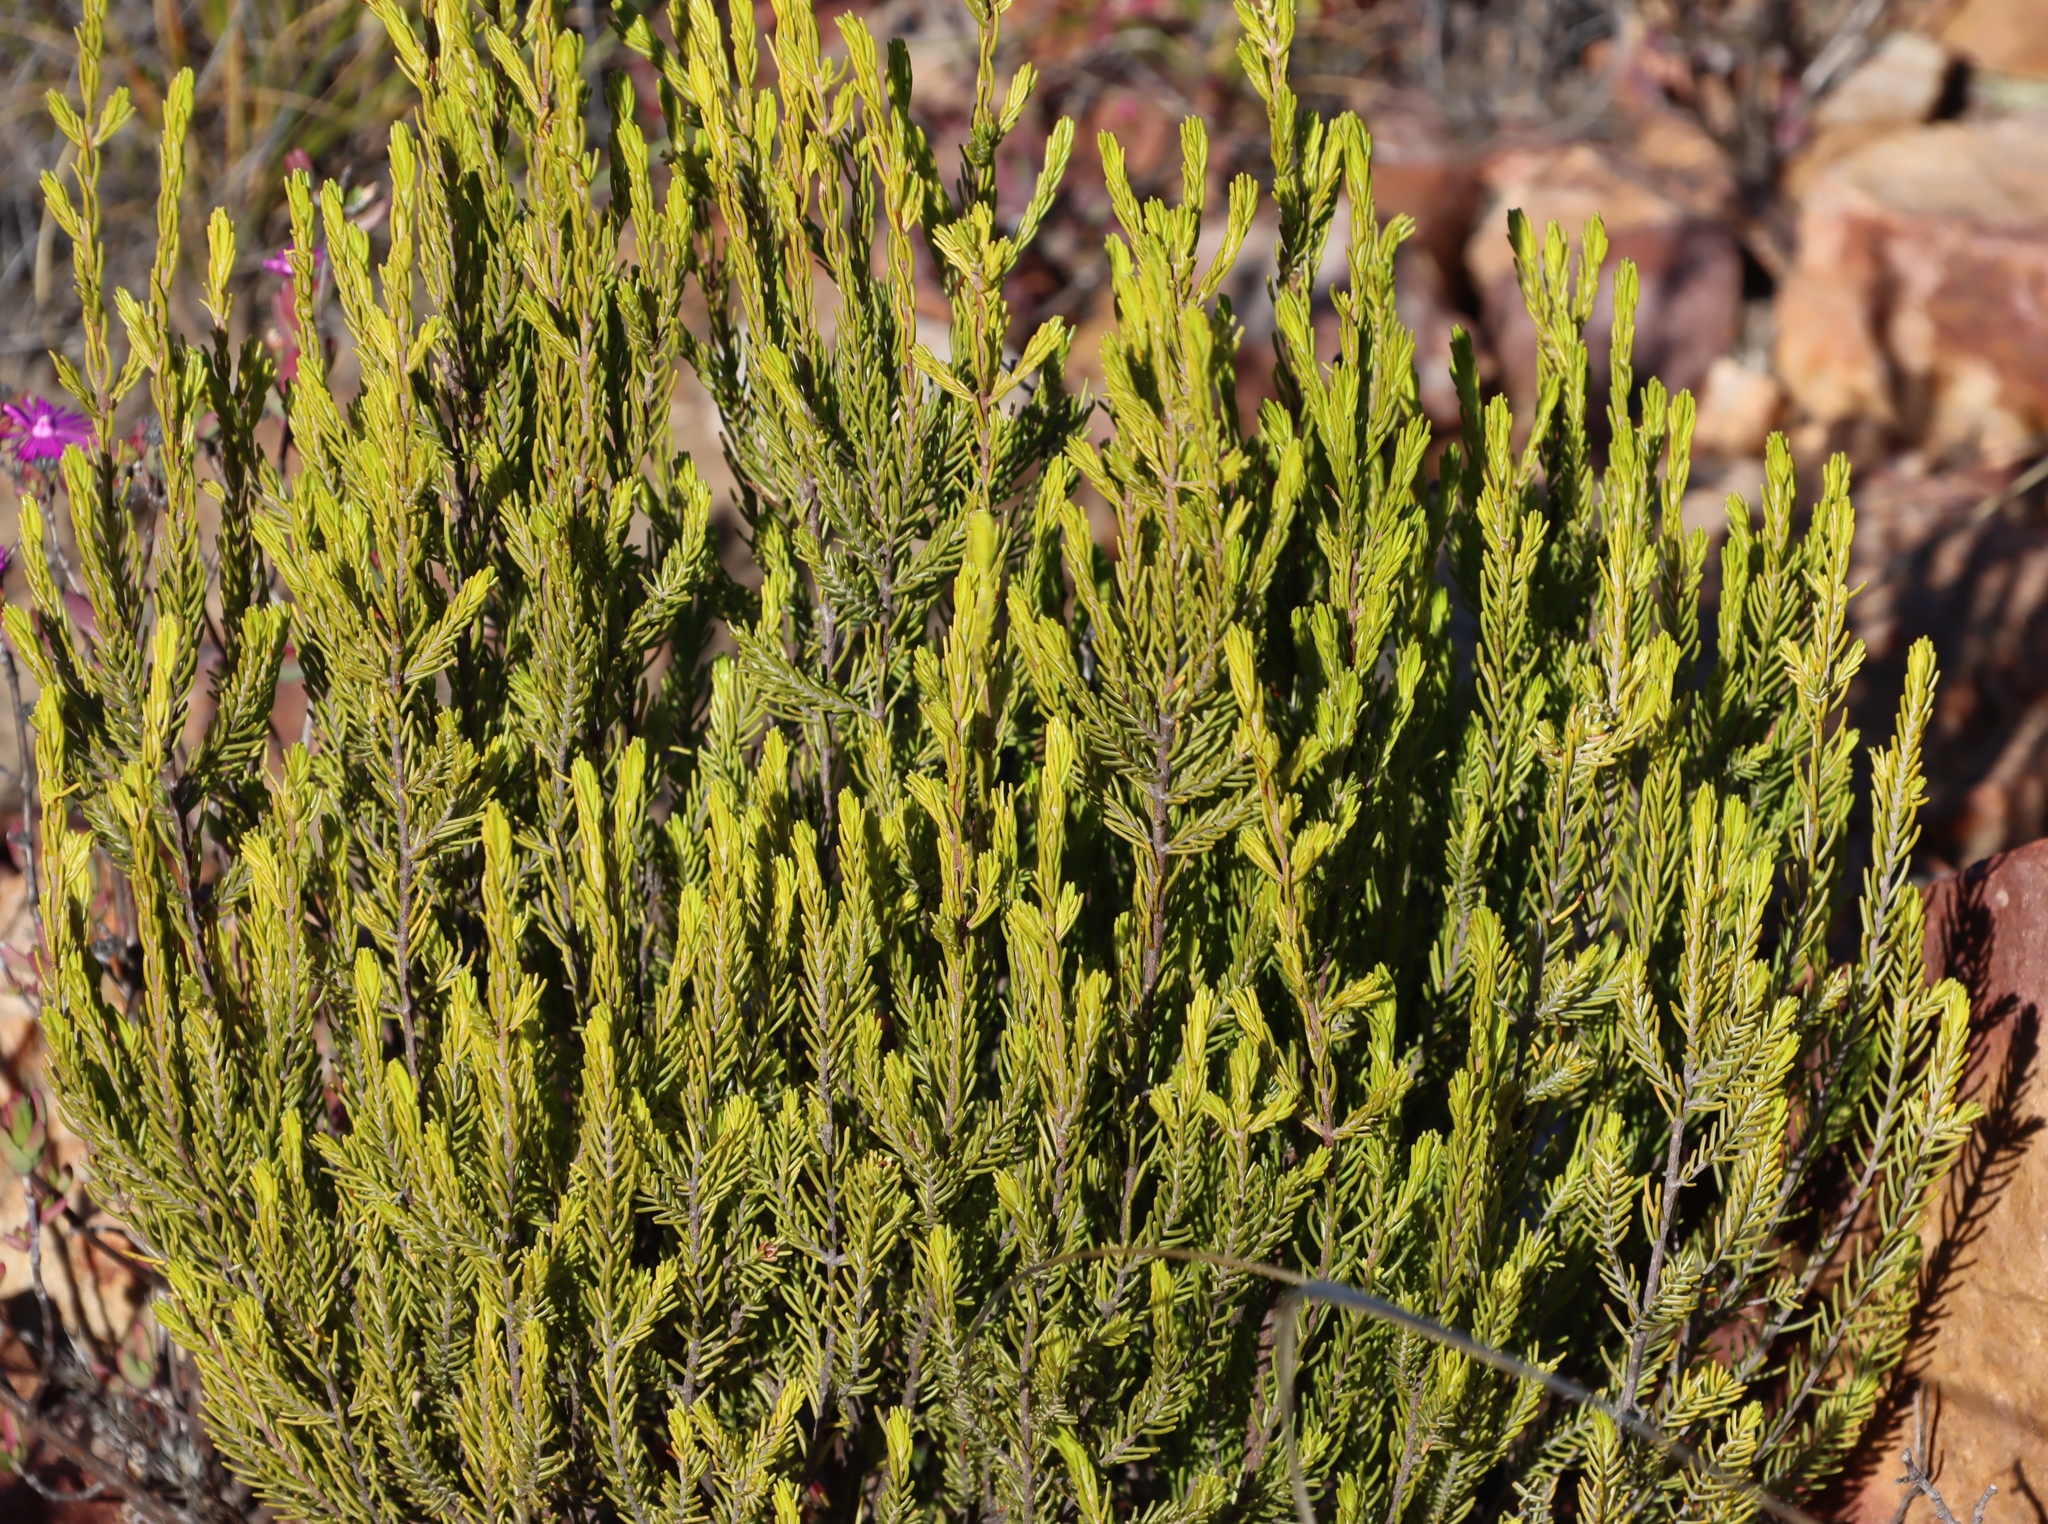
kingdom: Plantae
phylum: Tracheophyta
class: Magnoliopsida
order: Malvales
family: Thymelaeaceae
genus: Passerina
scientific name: Passerina obtusifolia
